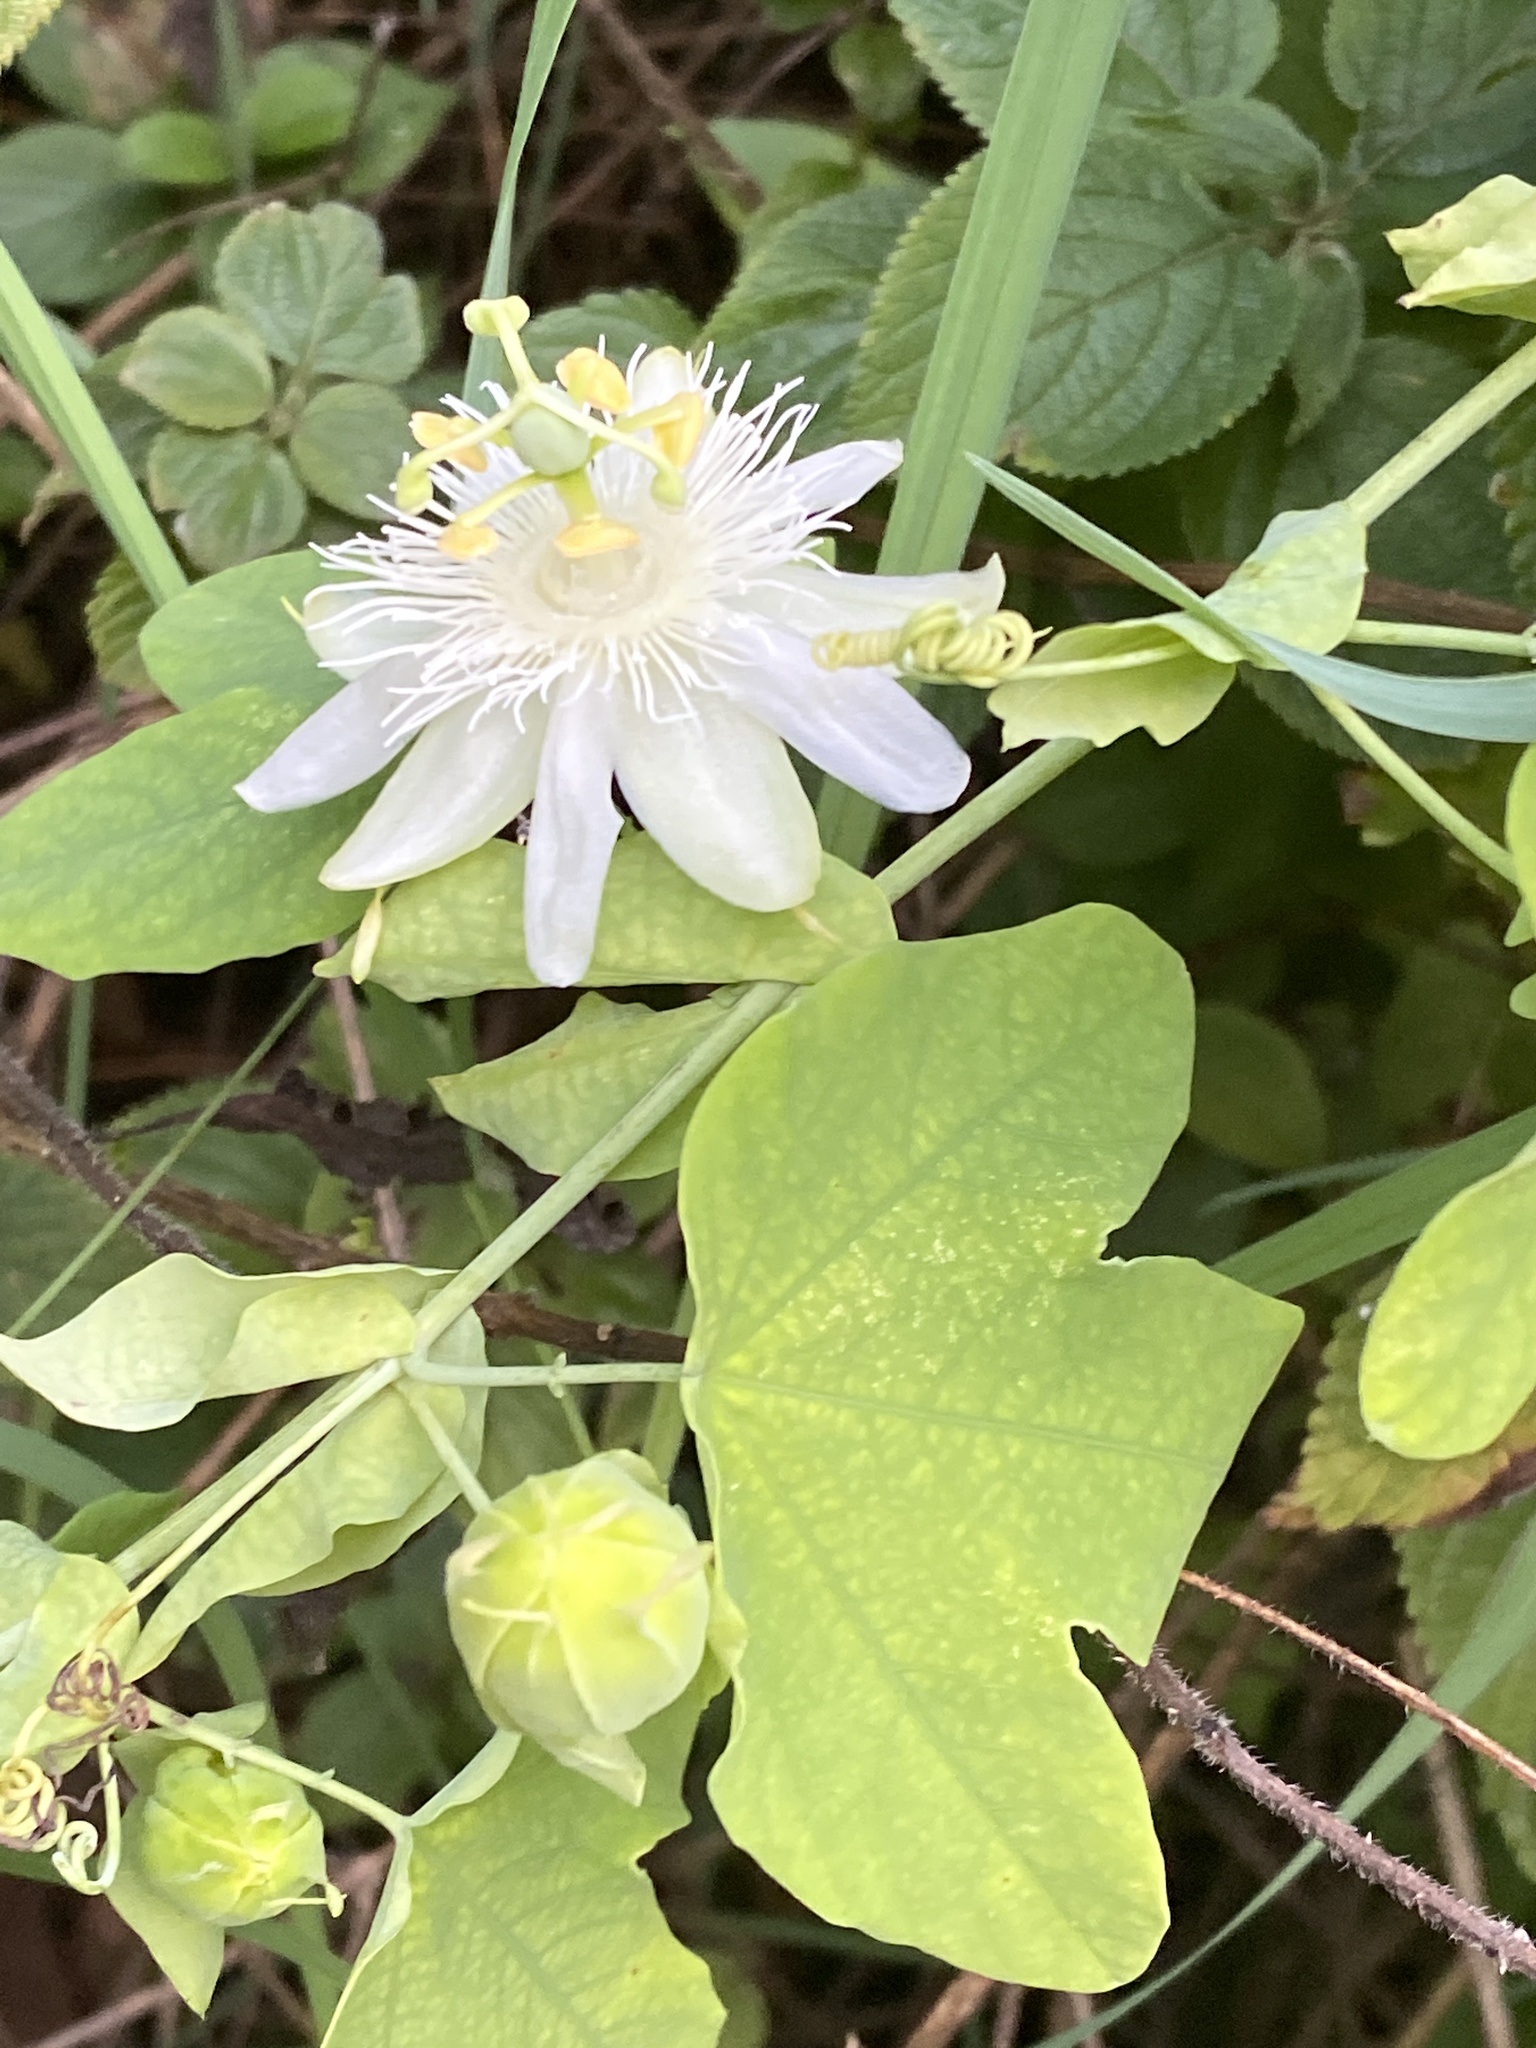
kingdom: Plantae
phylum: Tracheophyta
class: Magnoliopsida
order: Malpighiales
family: Passifloraceae
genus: Passiflora
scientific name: Passiflora subpeltata
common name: White passionflower
